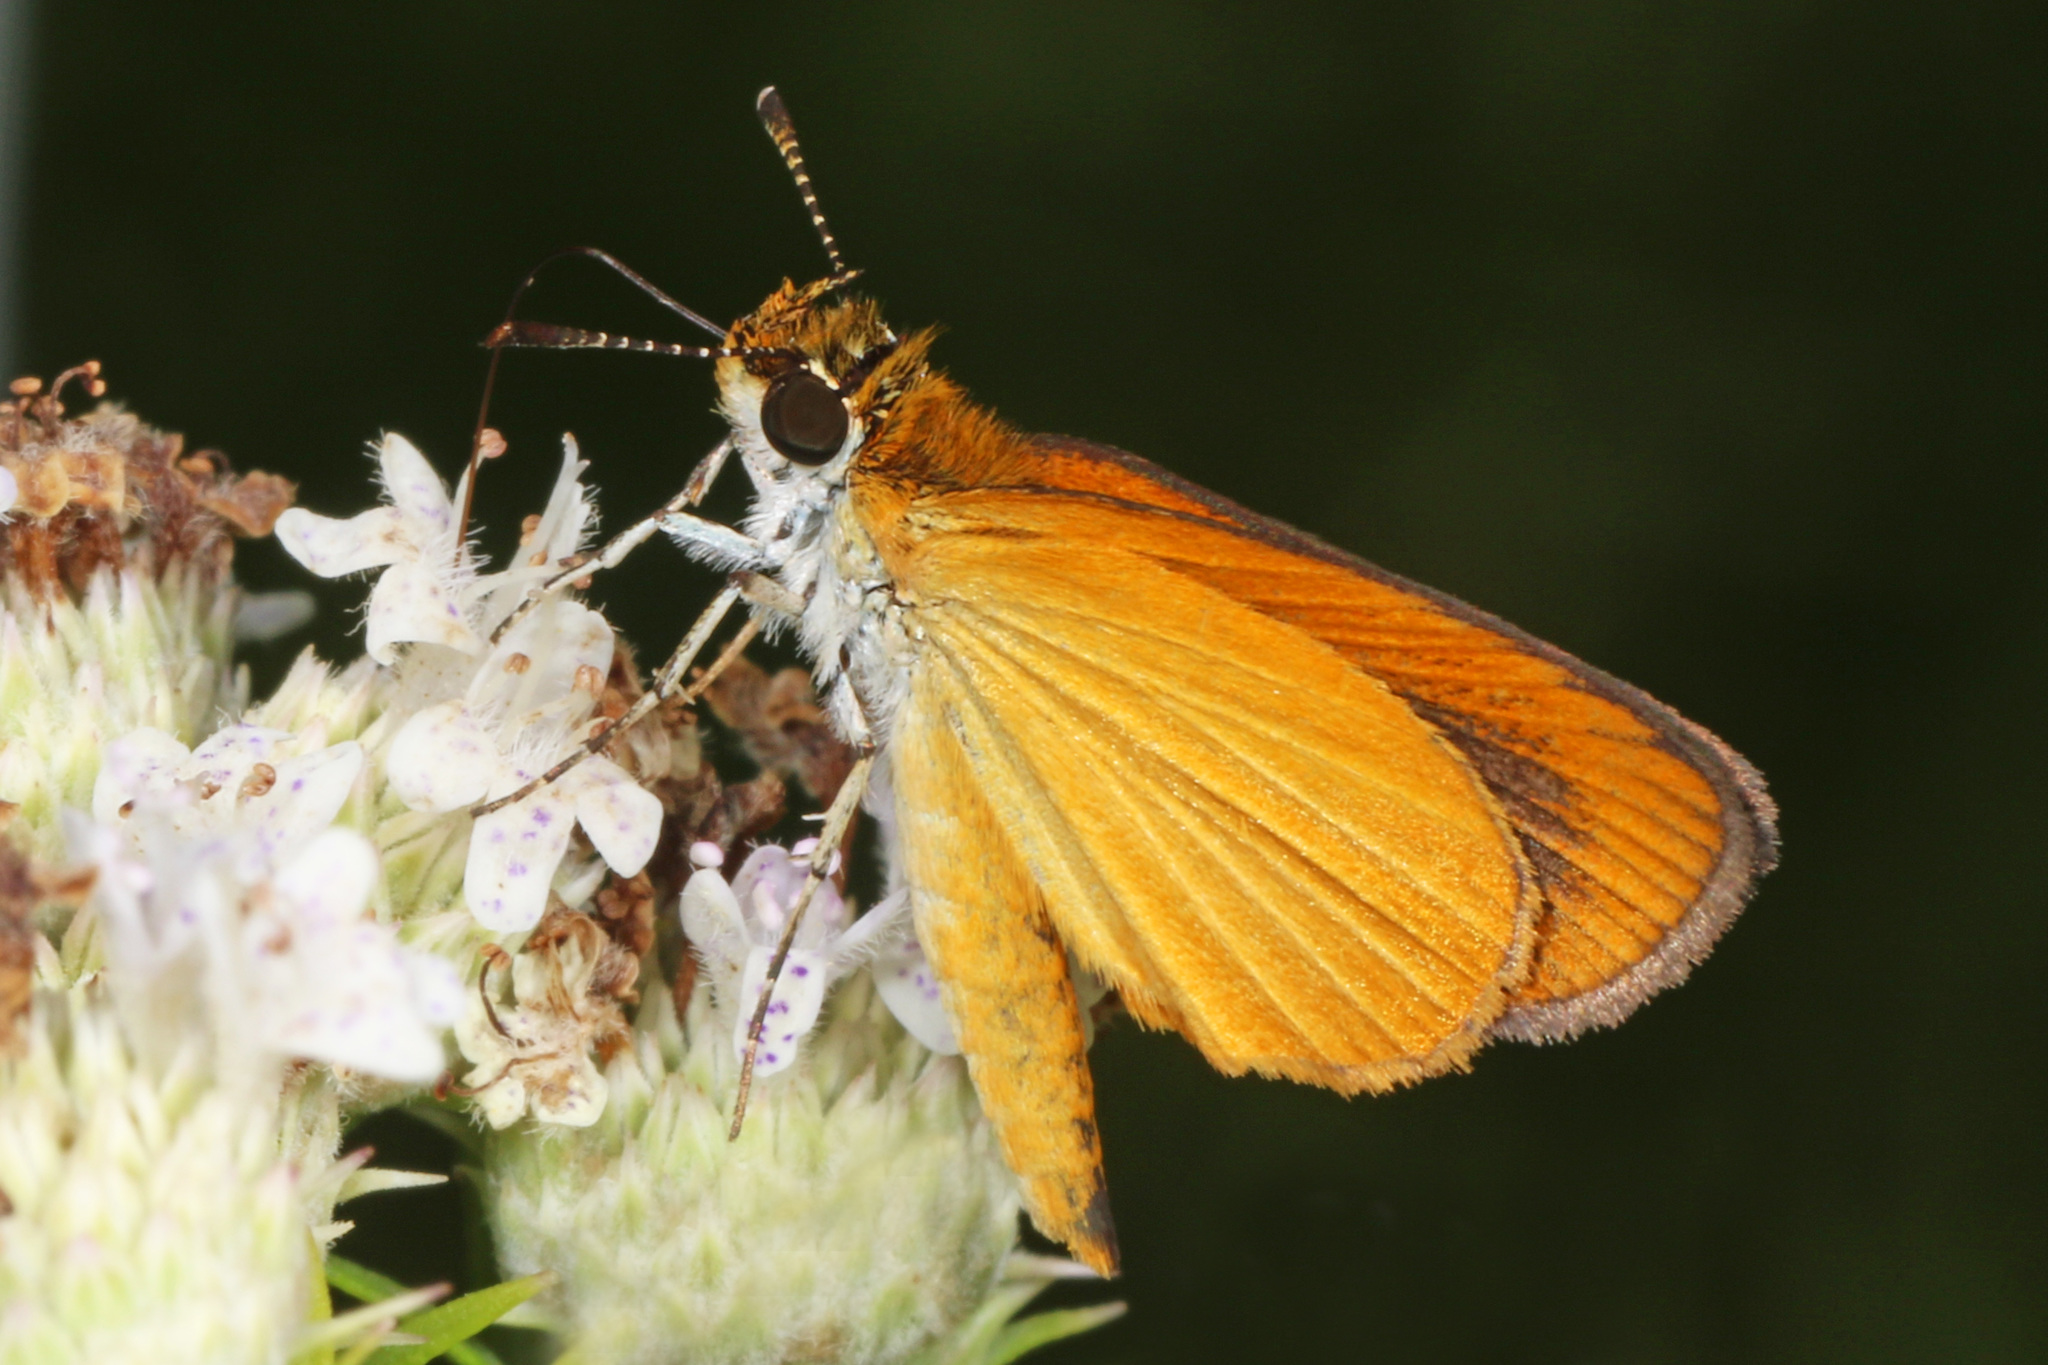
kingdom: Animalia
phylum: Arthropoda
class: Insecta
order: Lepidoptera
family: Hesperiidae
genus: Ancyloxypha
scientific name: Ancyloxypha numitor
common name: Least skipper
